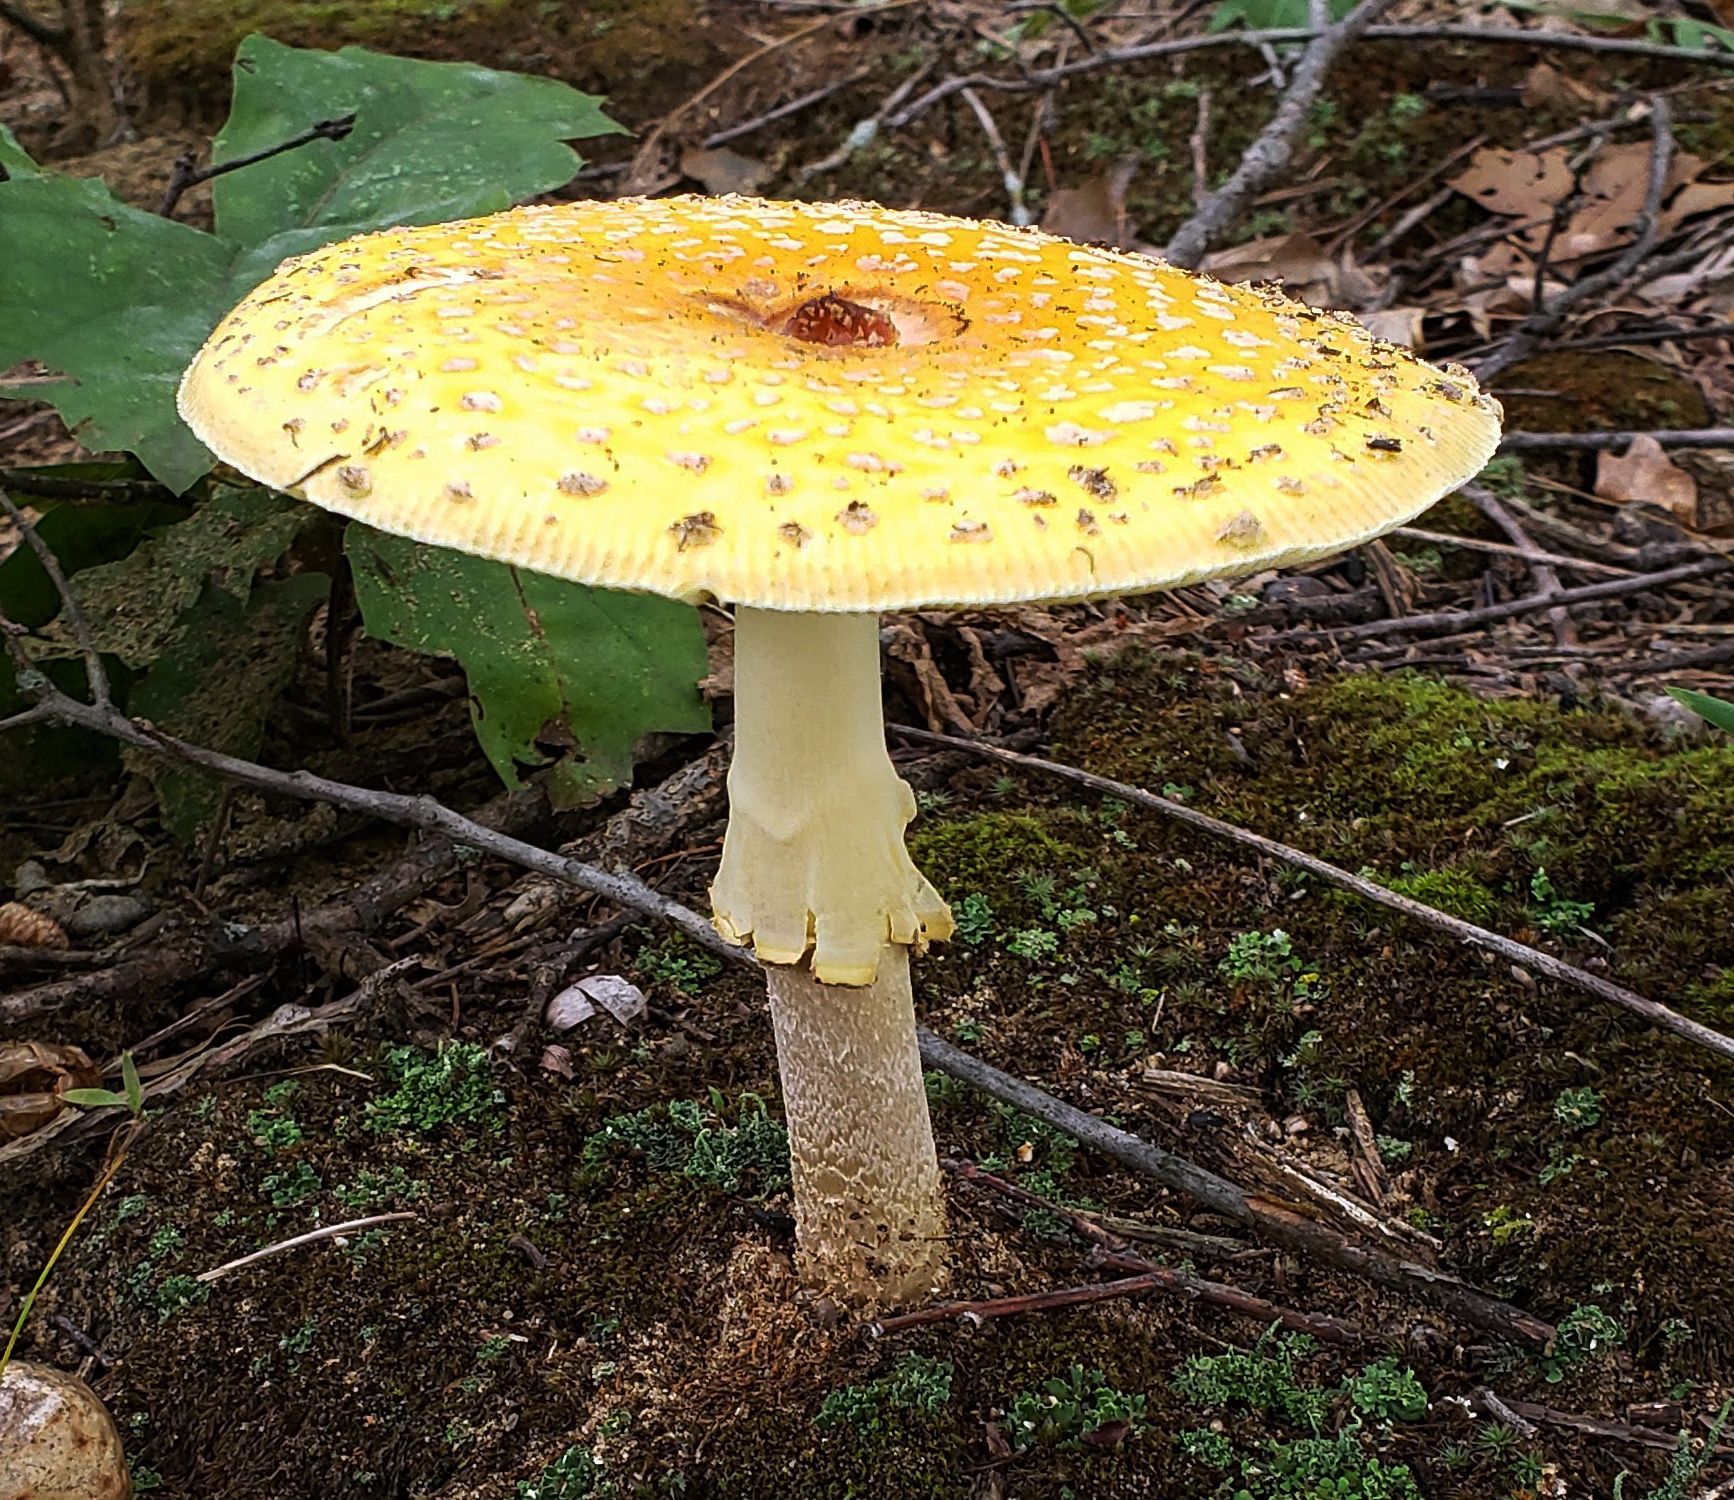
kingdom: Fungi
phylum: Basidiomycota
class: Agaricomycetes
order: Agaricales
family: Amanitaceae
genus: Amanita
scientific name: Amanita muscaria
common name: Fly agaric
